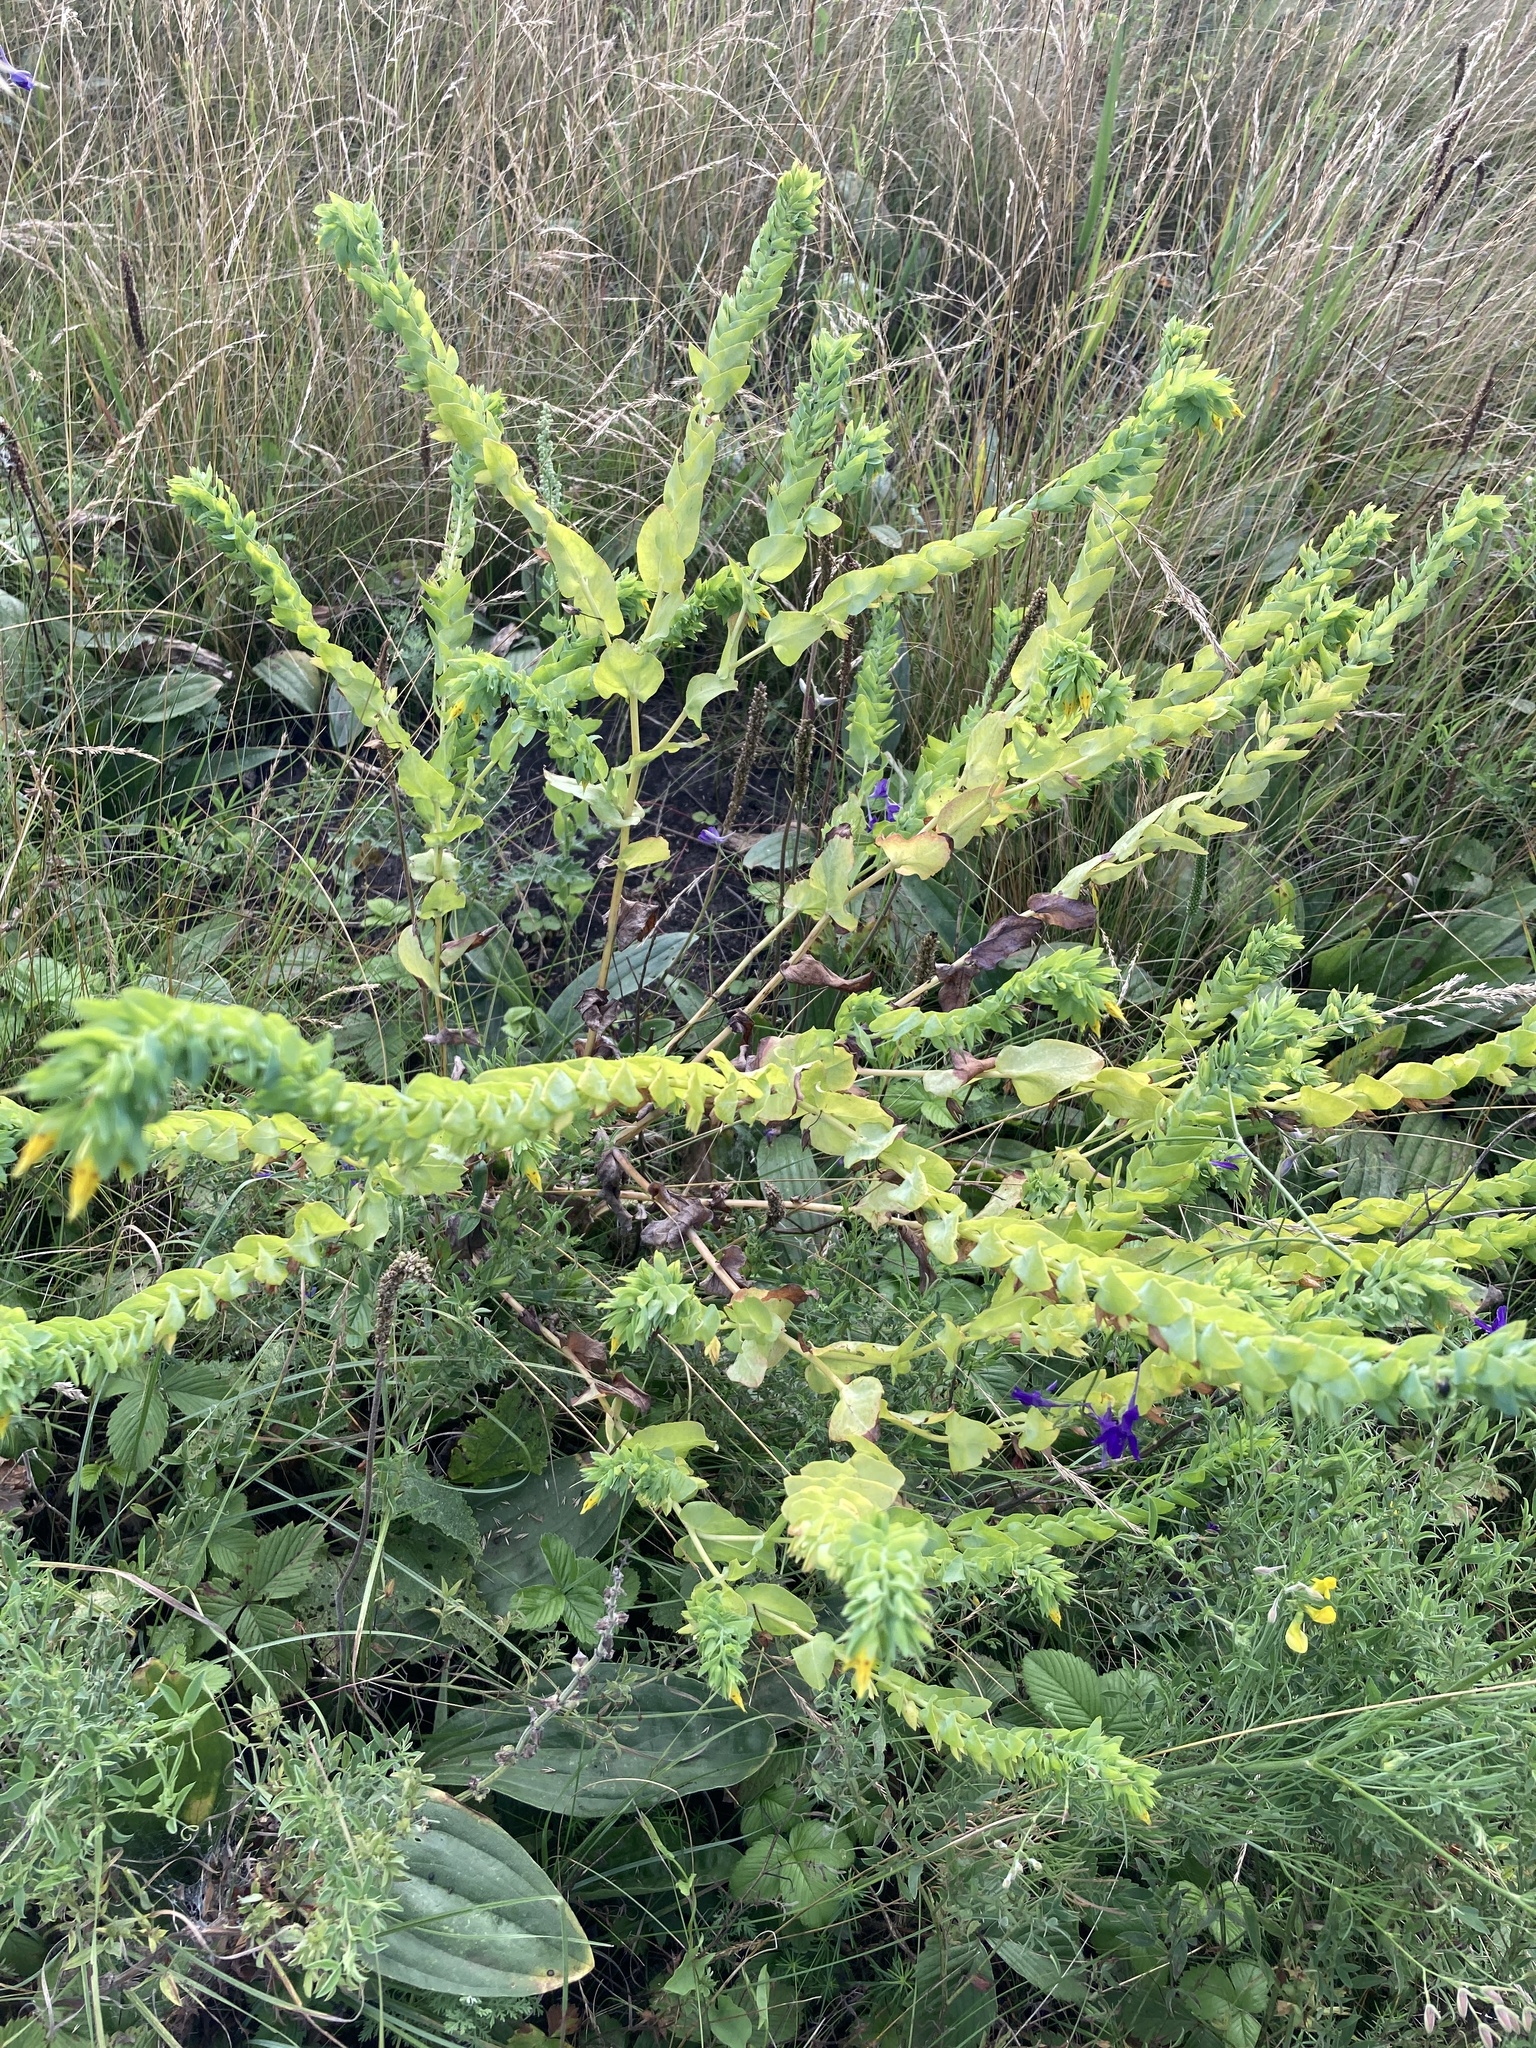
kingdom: Plantae
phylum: Tracheophyta
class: Magnoliopsida
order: Boraginales
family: Boraginaceae
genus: Cerinthe
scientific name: Cerinthe minor
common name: Lesser honeywort
